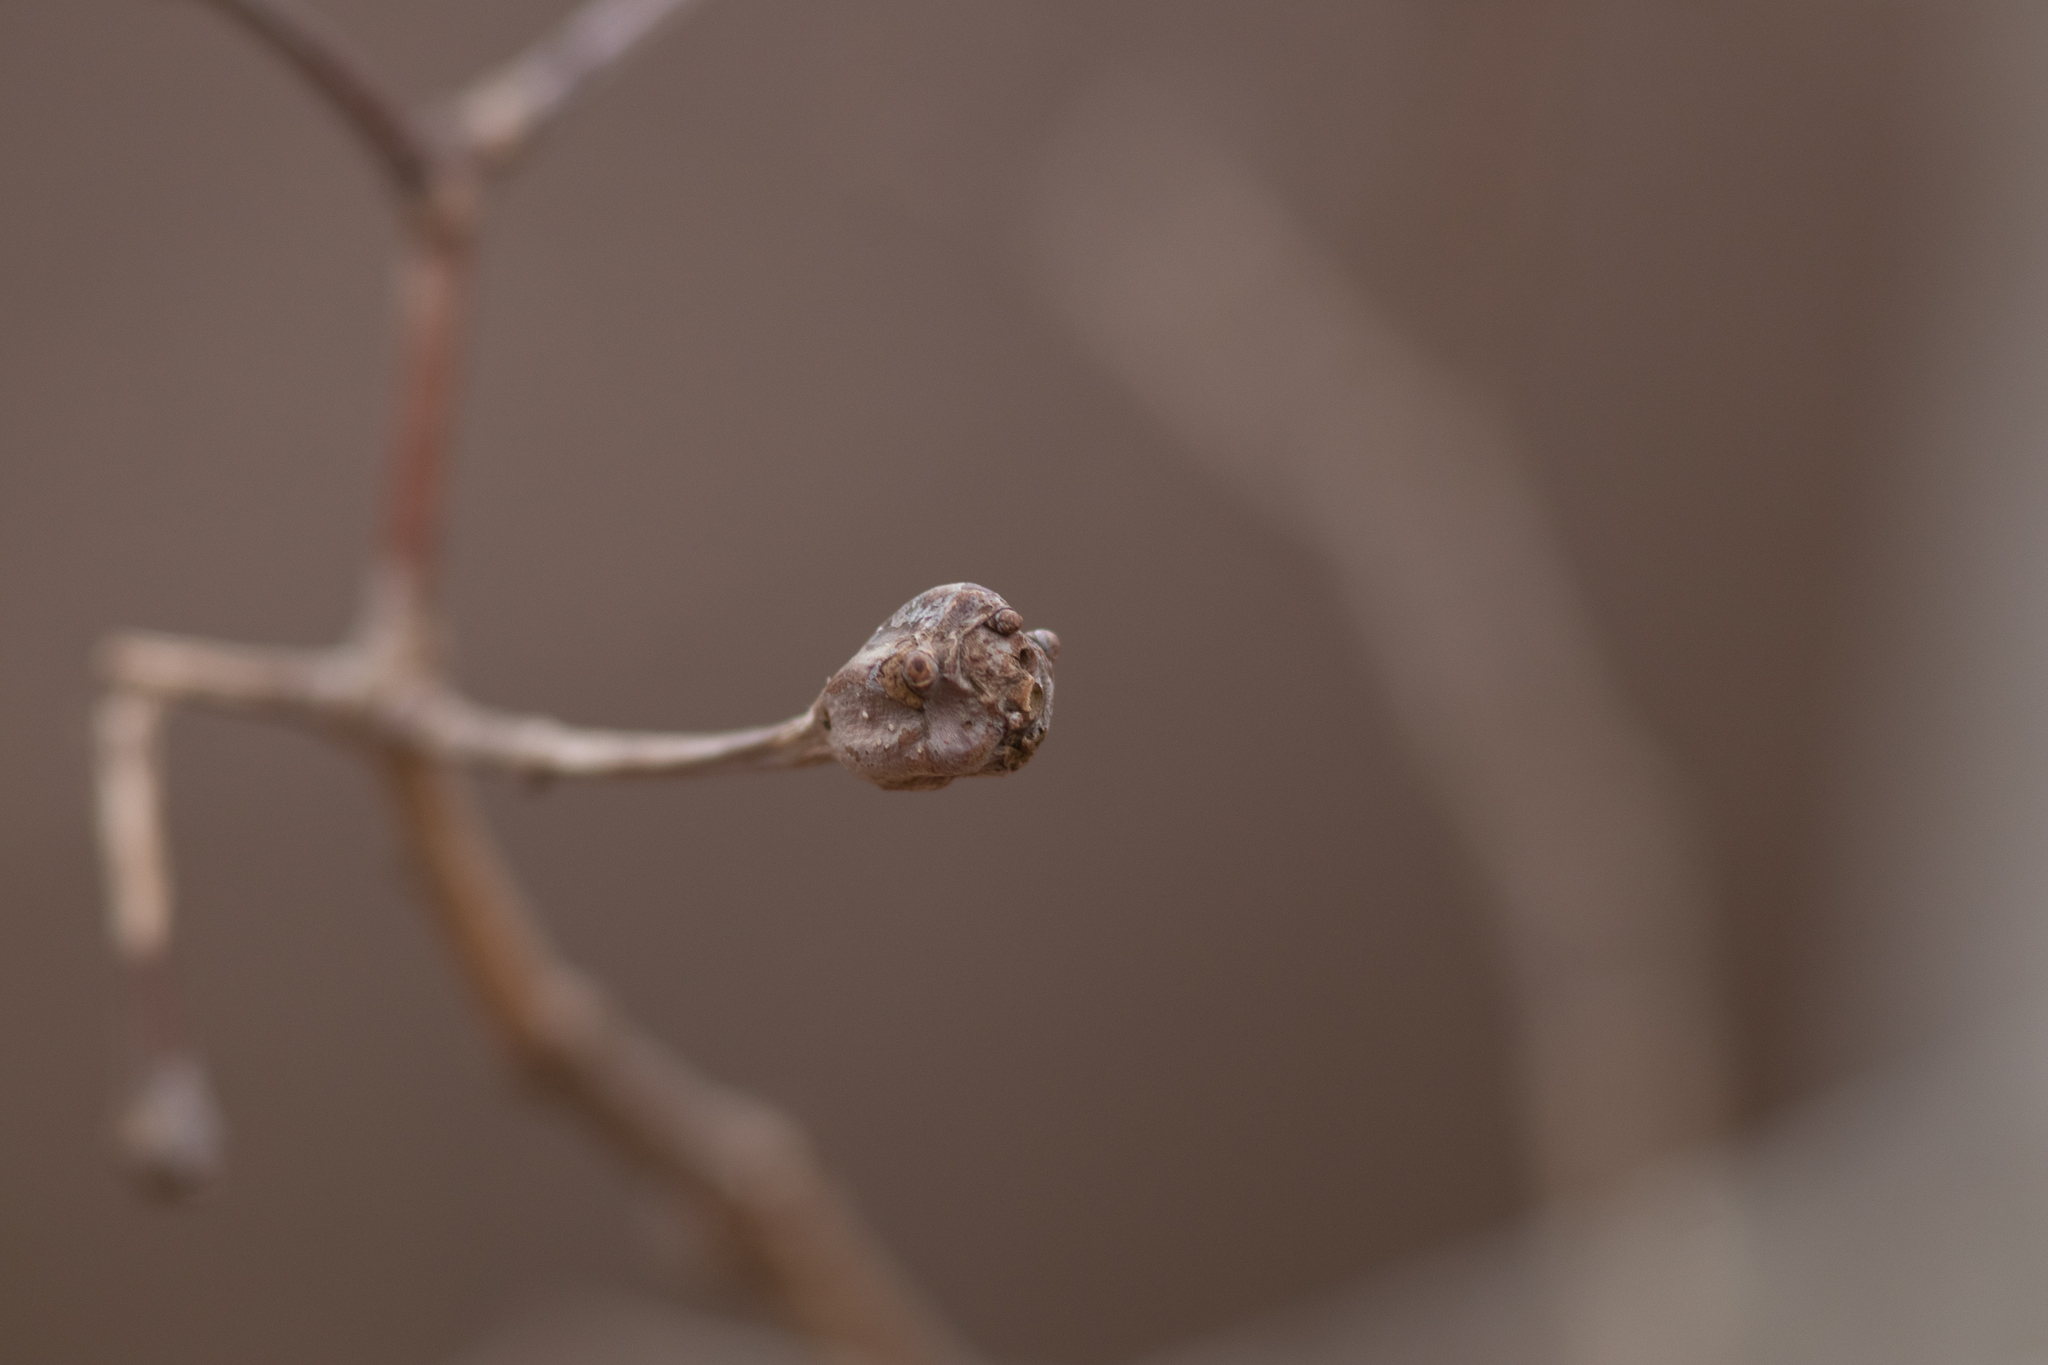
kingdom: Animalia
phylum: Arthropoda
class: Insecta
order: Hymenoptera
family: Cynipidae
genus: Callirhytis
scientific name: Callirhytis clavula
